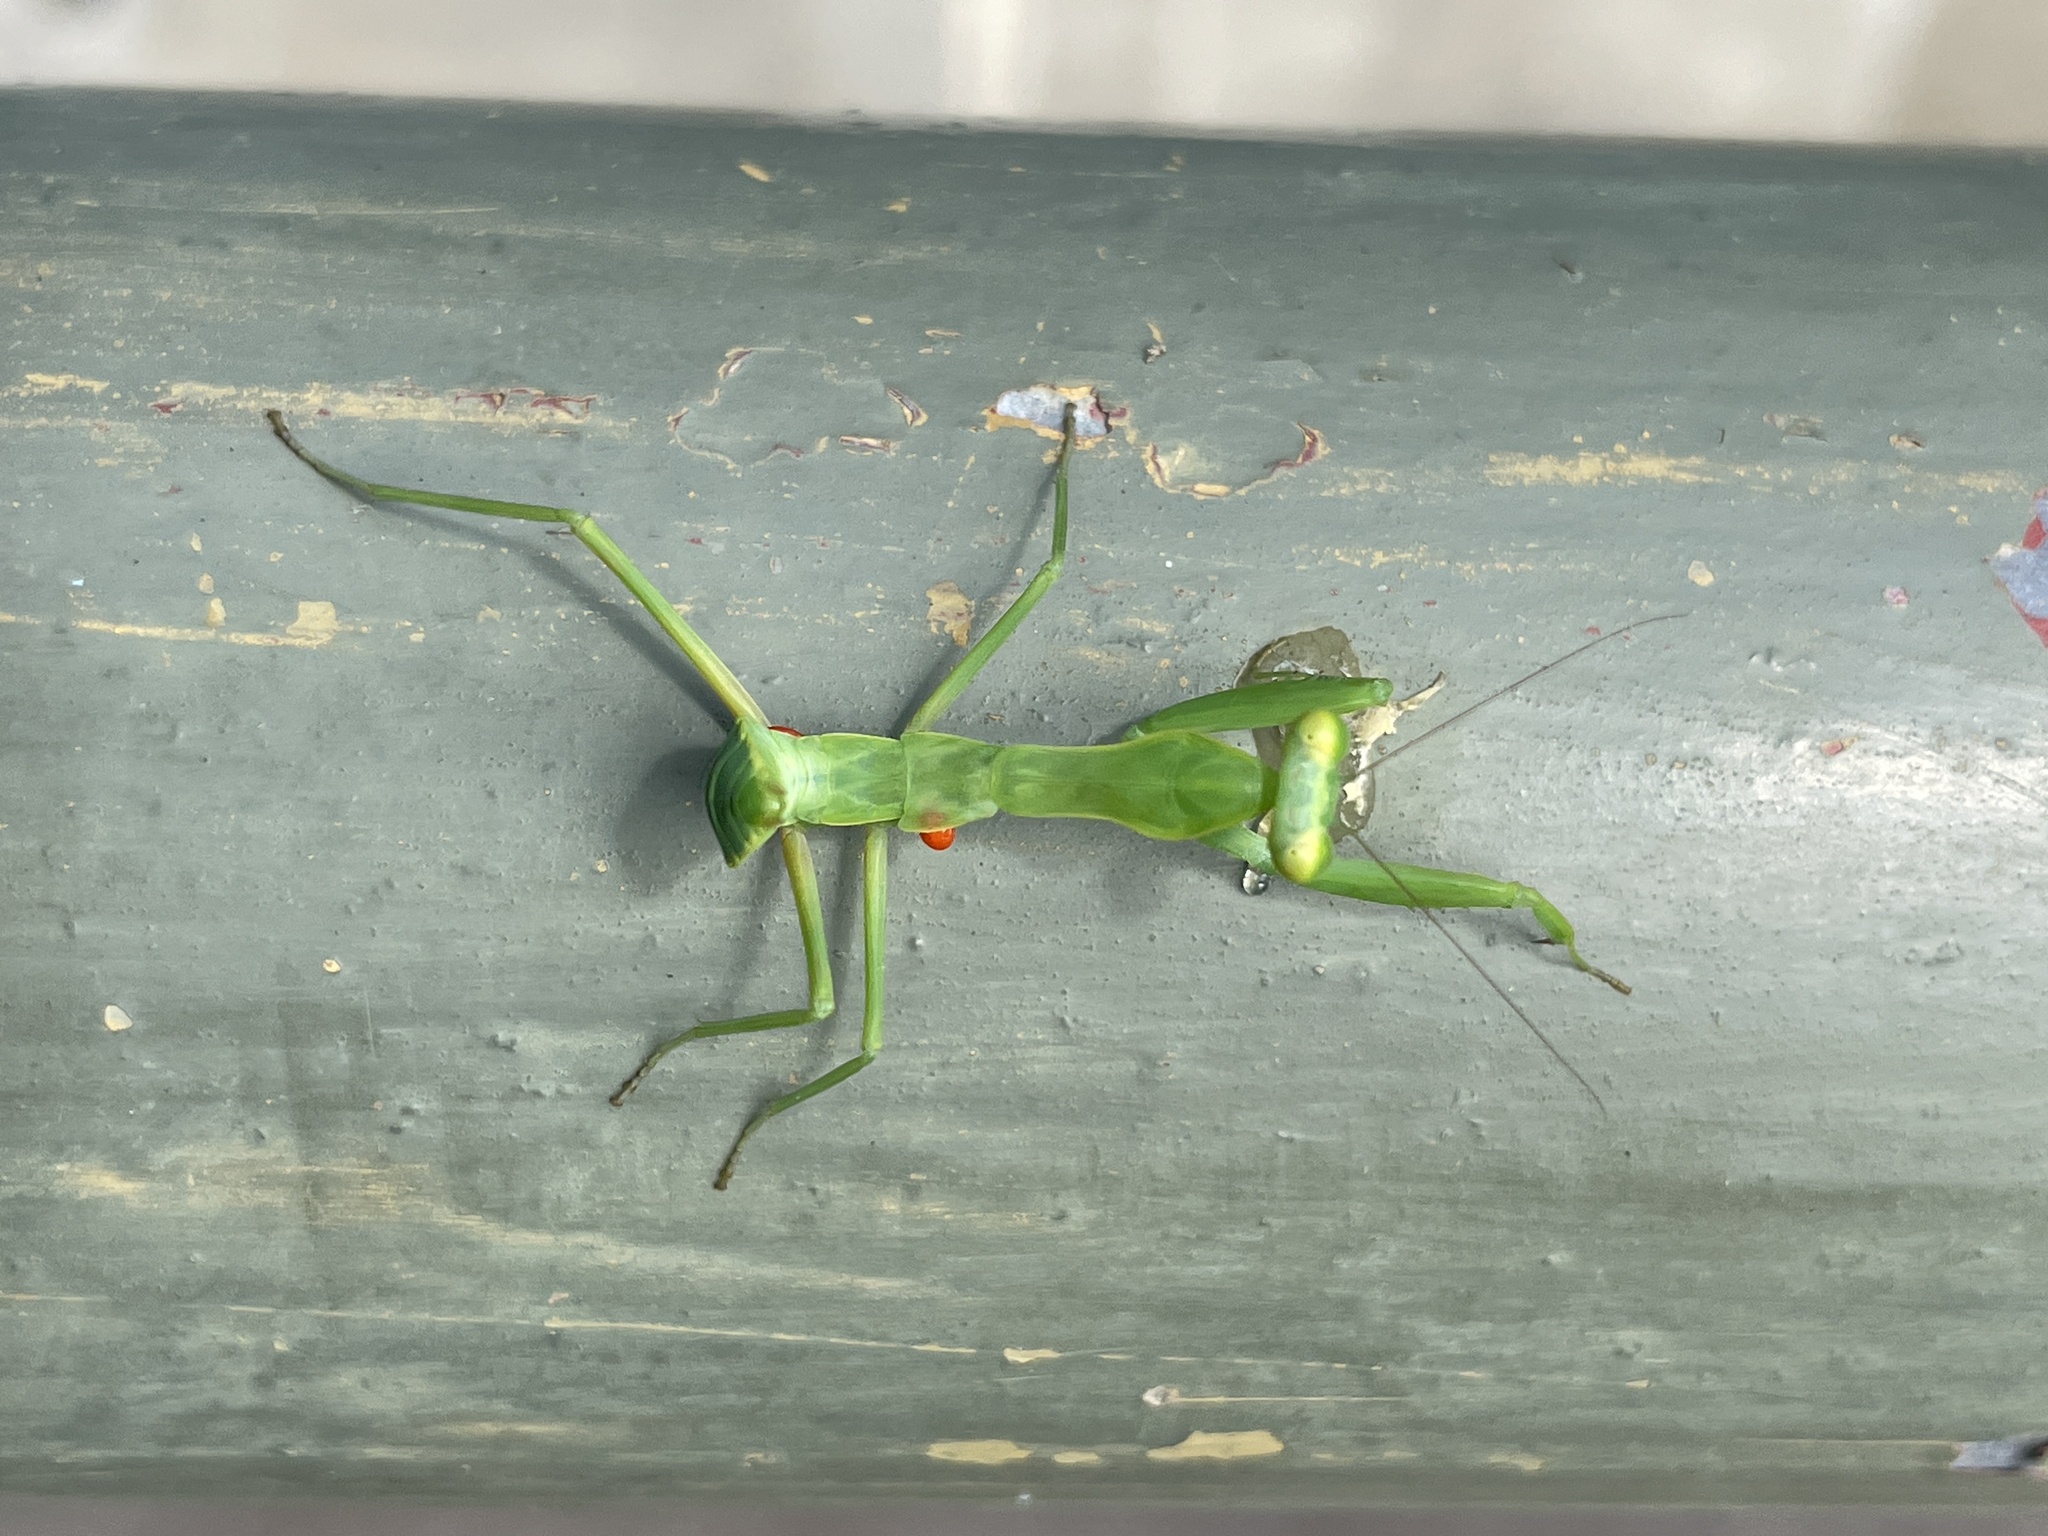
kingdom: Animalia
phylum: Arthropoda
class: Insecta
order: Mantodea
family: Mantidae
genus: Hierodula
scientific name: Hierodula patellifera
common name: Asian mantis
